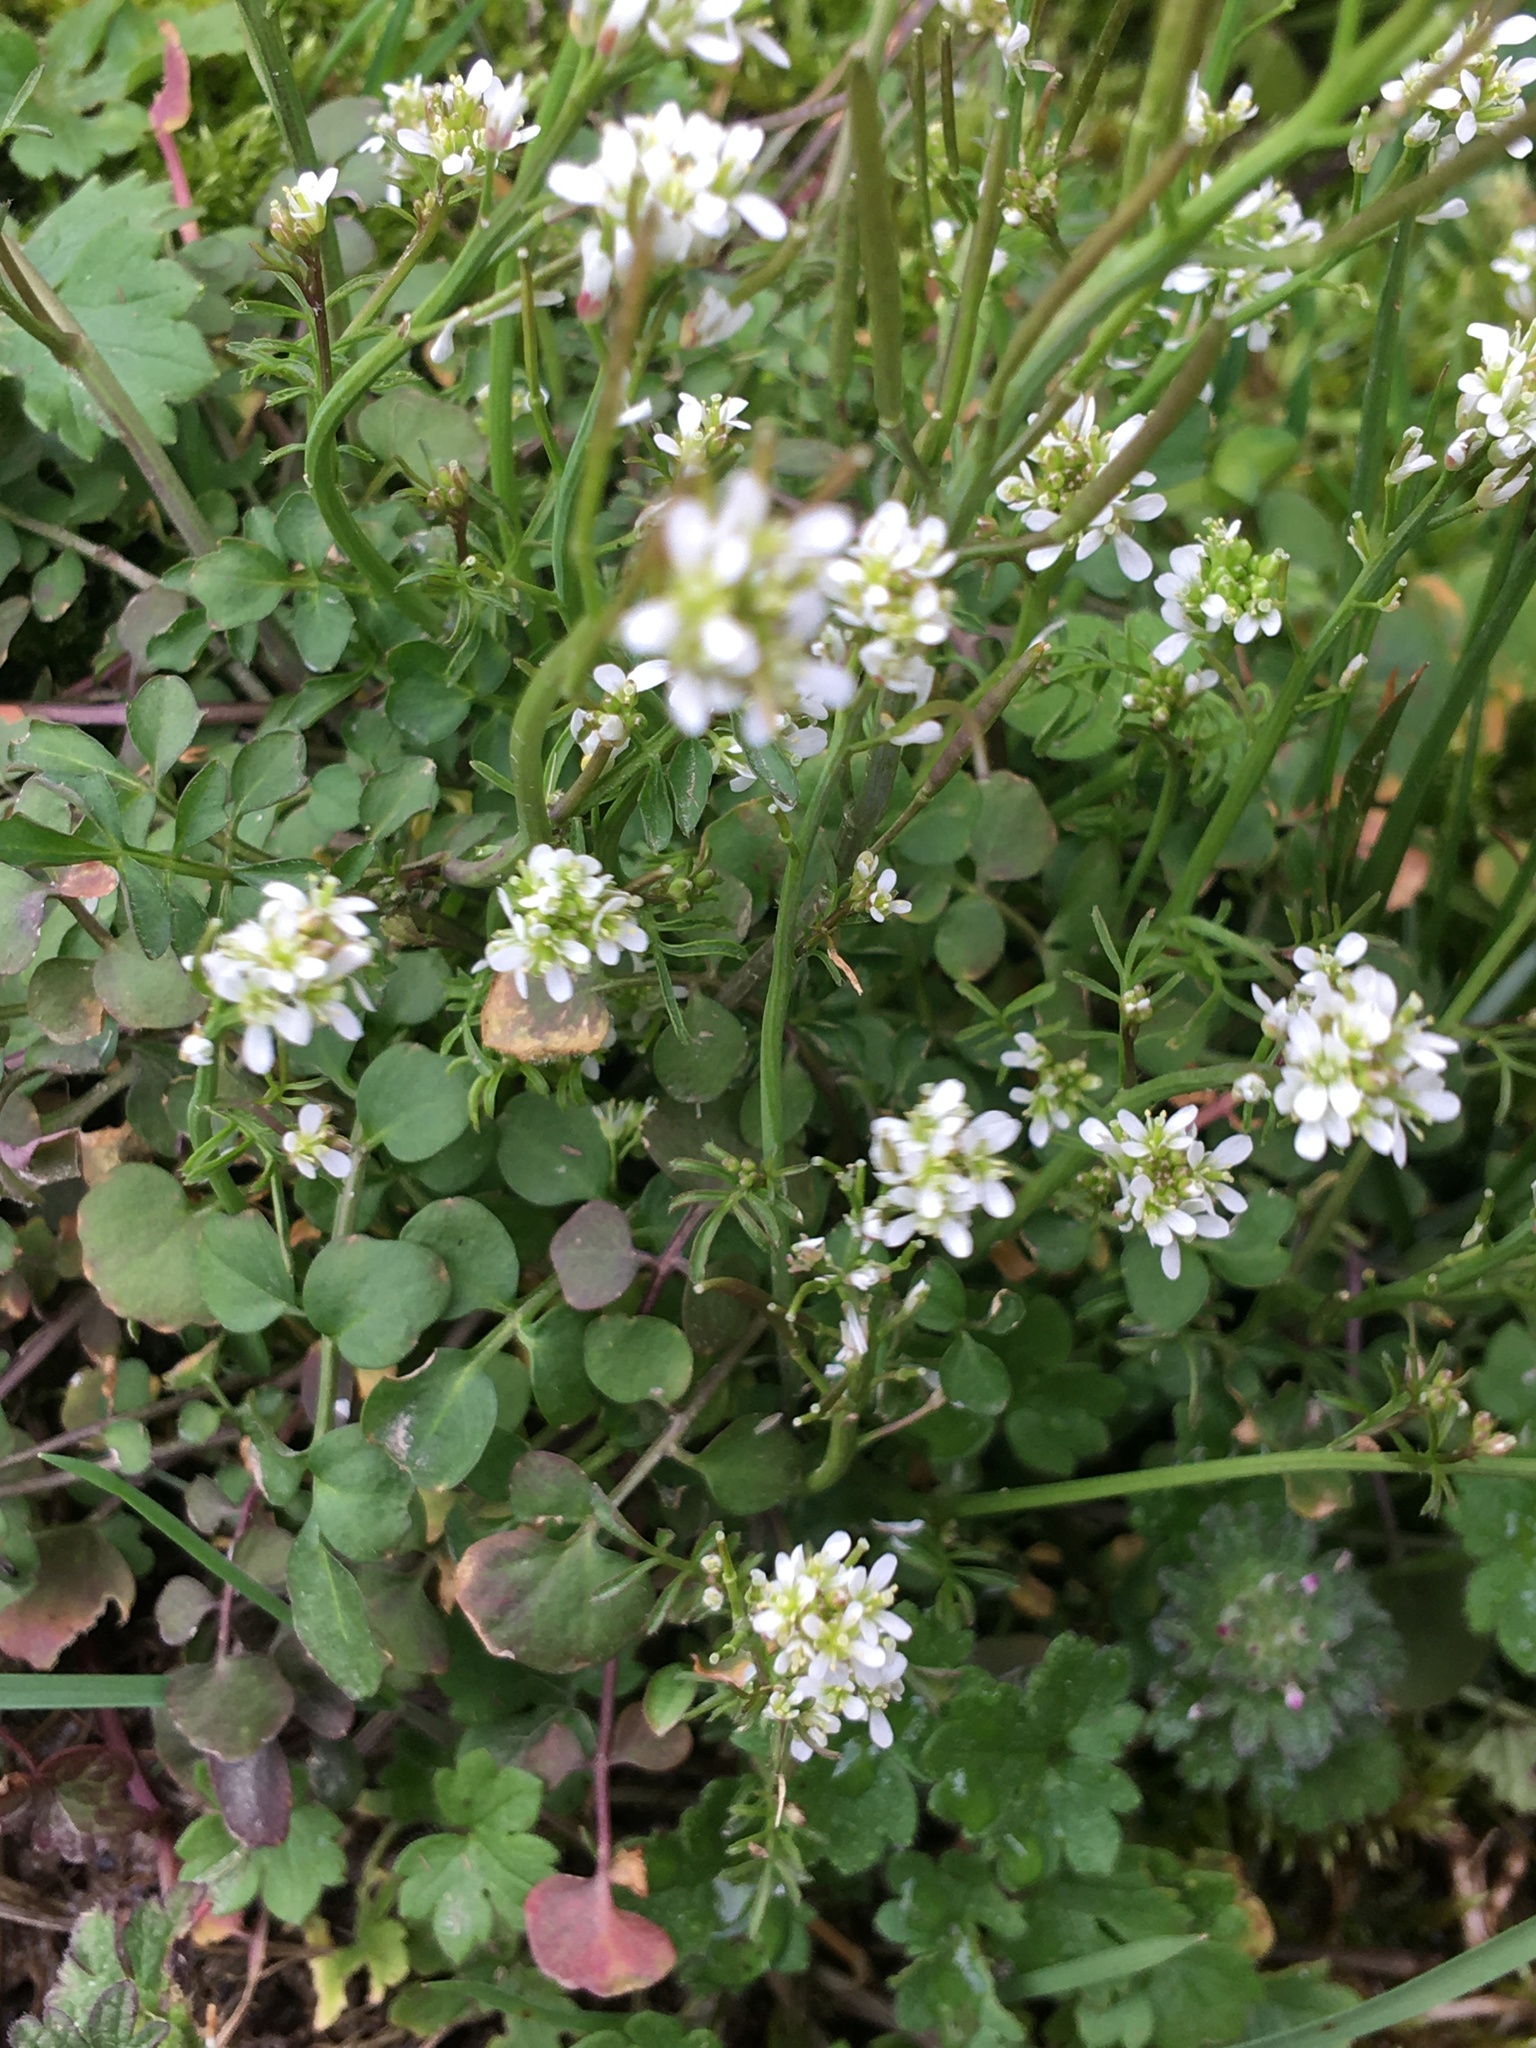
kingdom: Plantae
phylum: Tracheophyta
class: Magnoliopsida
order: Brassicales
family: Brassicaceae
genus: Cardamine
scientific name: Cardamine hirsuta
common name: Hairy bittercress
